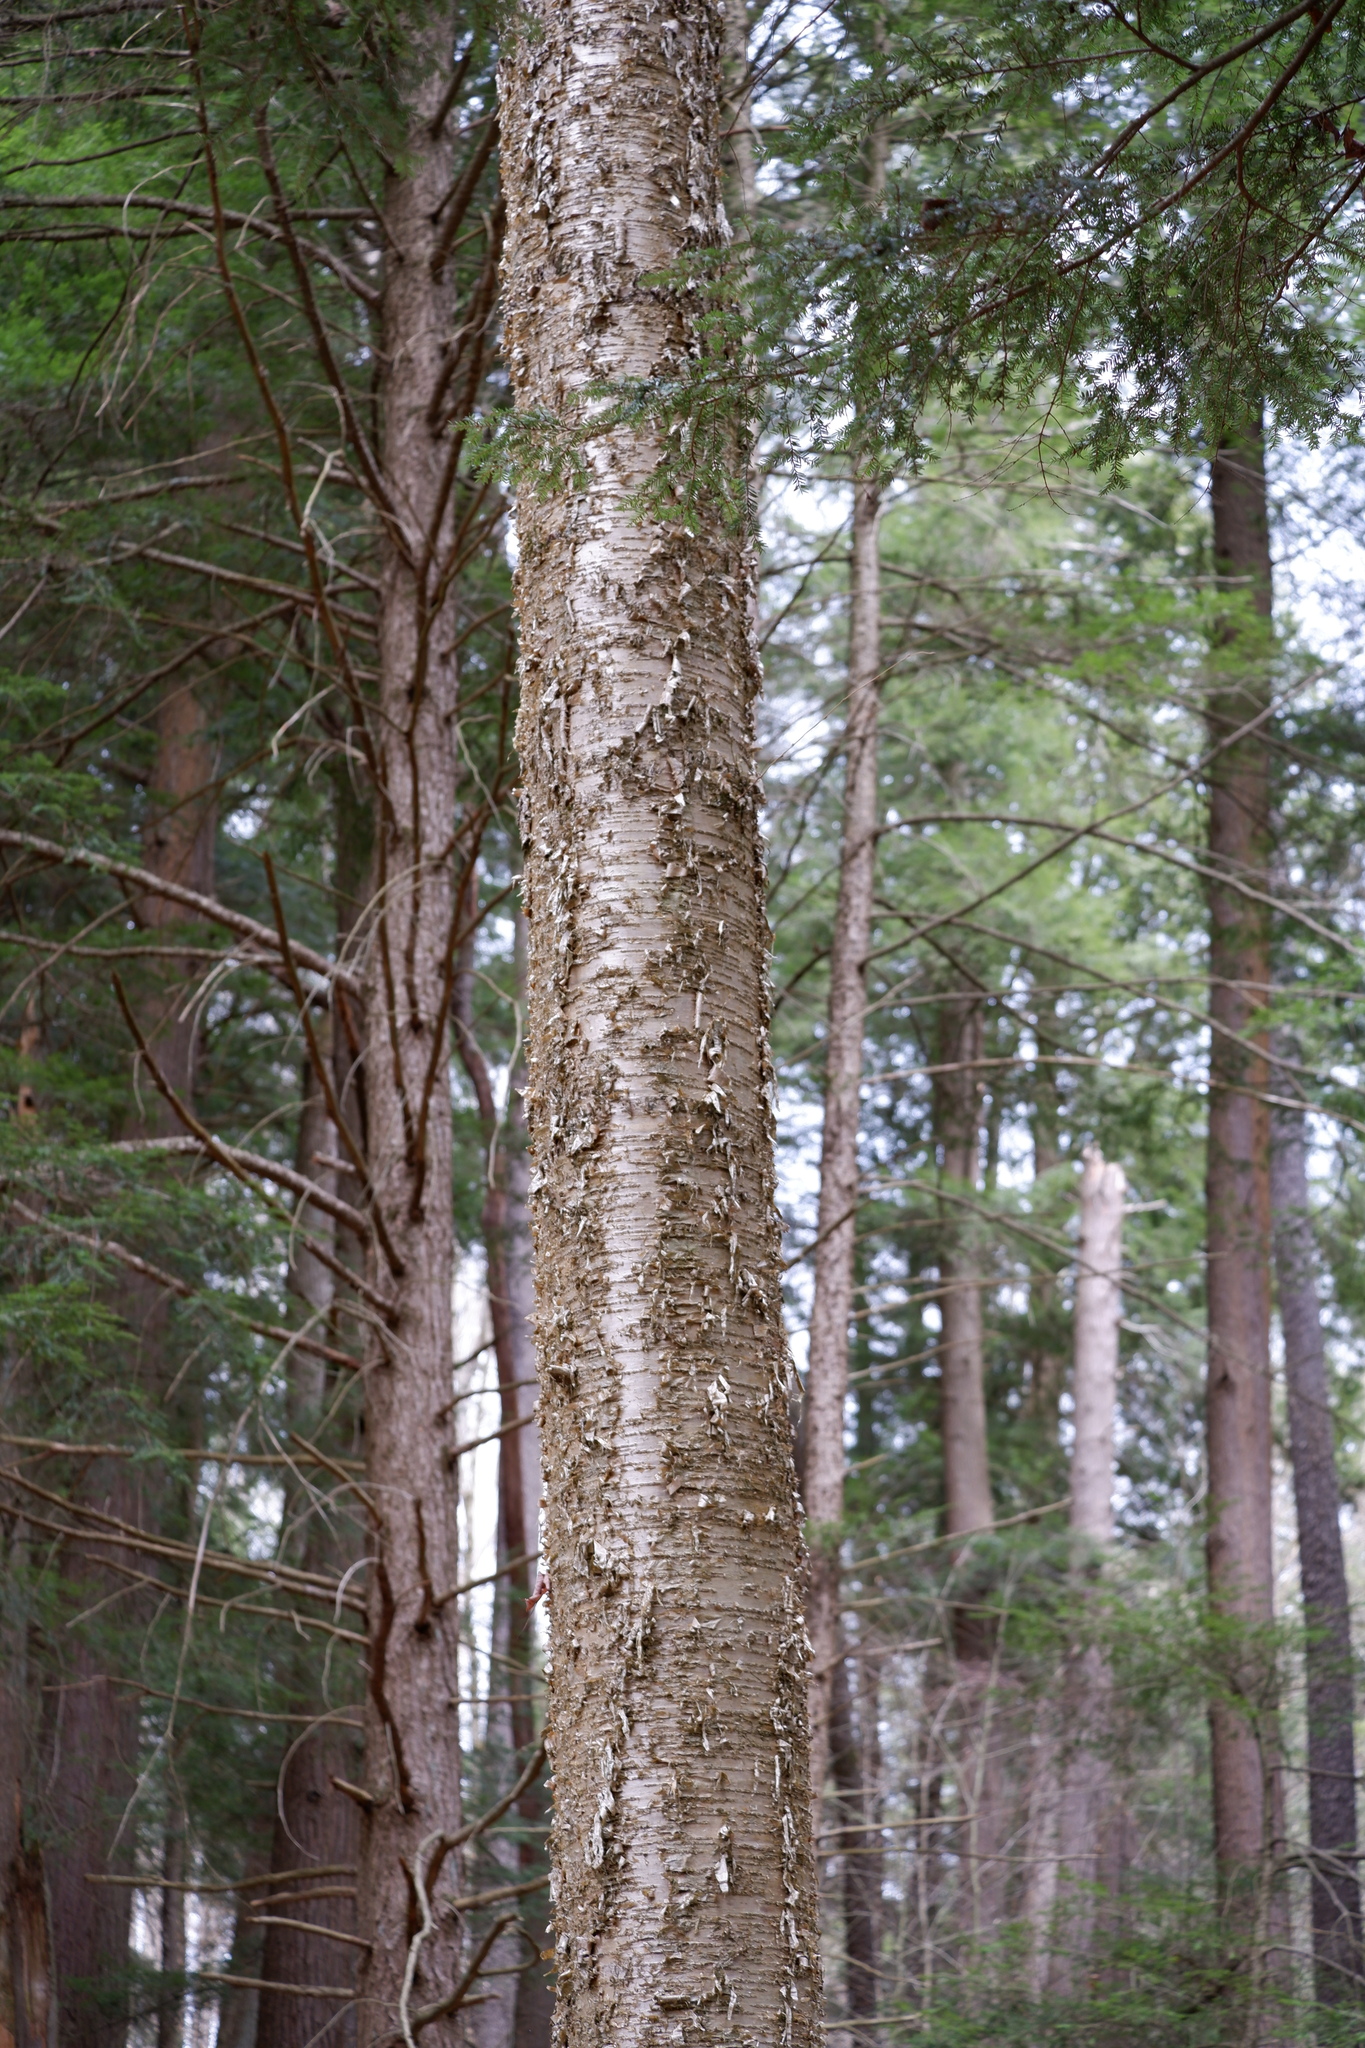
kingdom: Plantae
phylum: Tracheophyta
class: Magnoliopsida
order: Fagales
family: Betulaceae
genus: Betula
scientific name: Betula alleghaniensis
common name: Yellow birch
